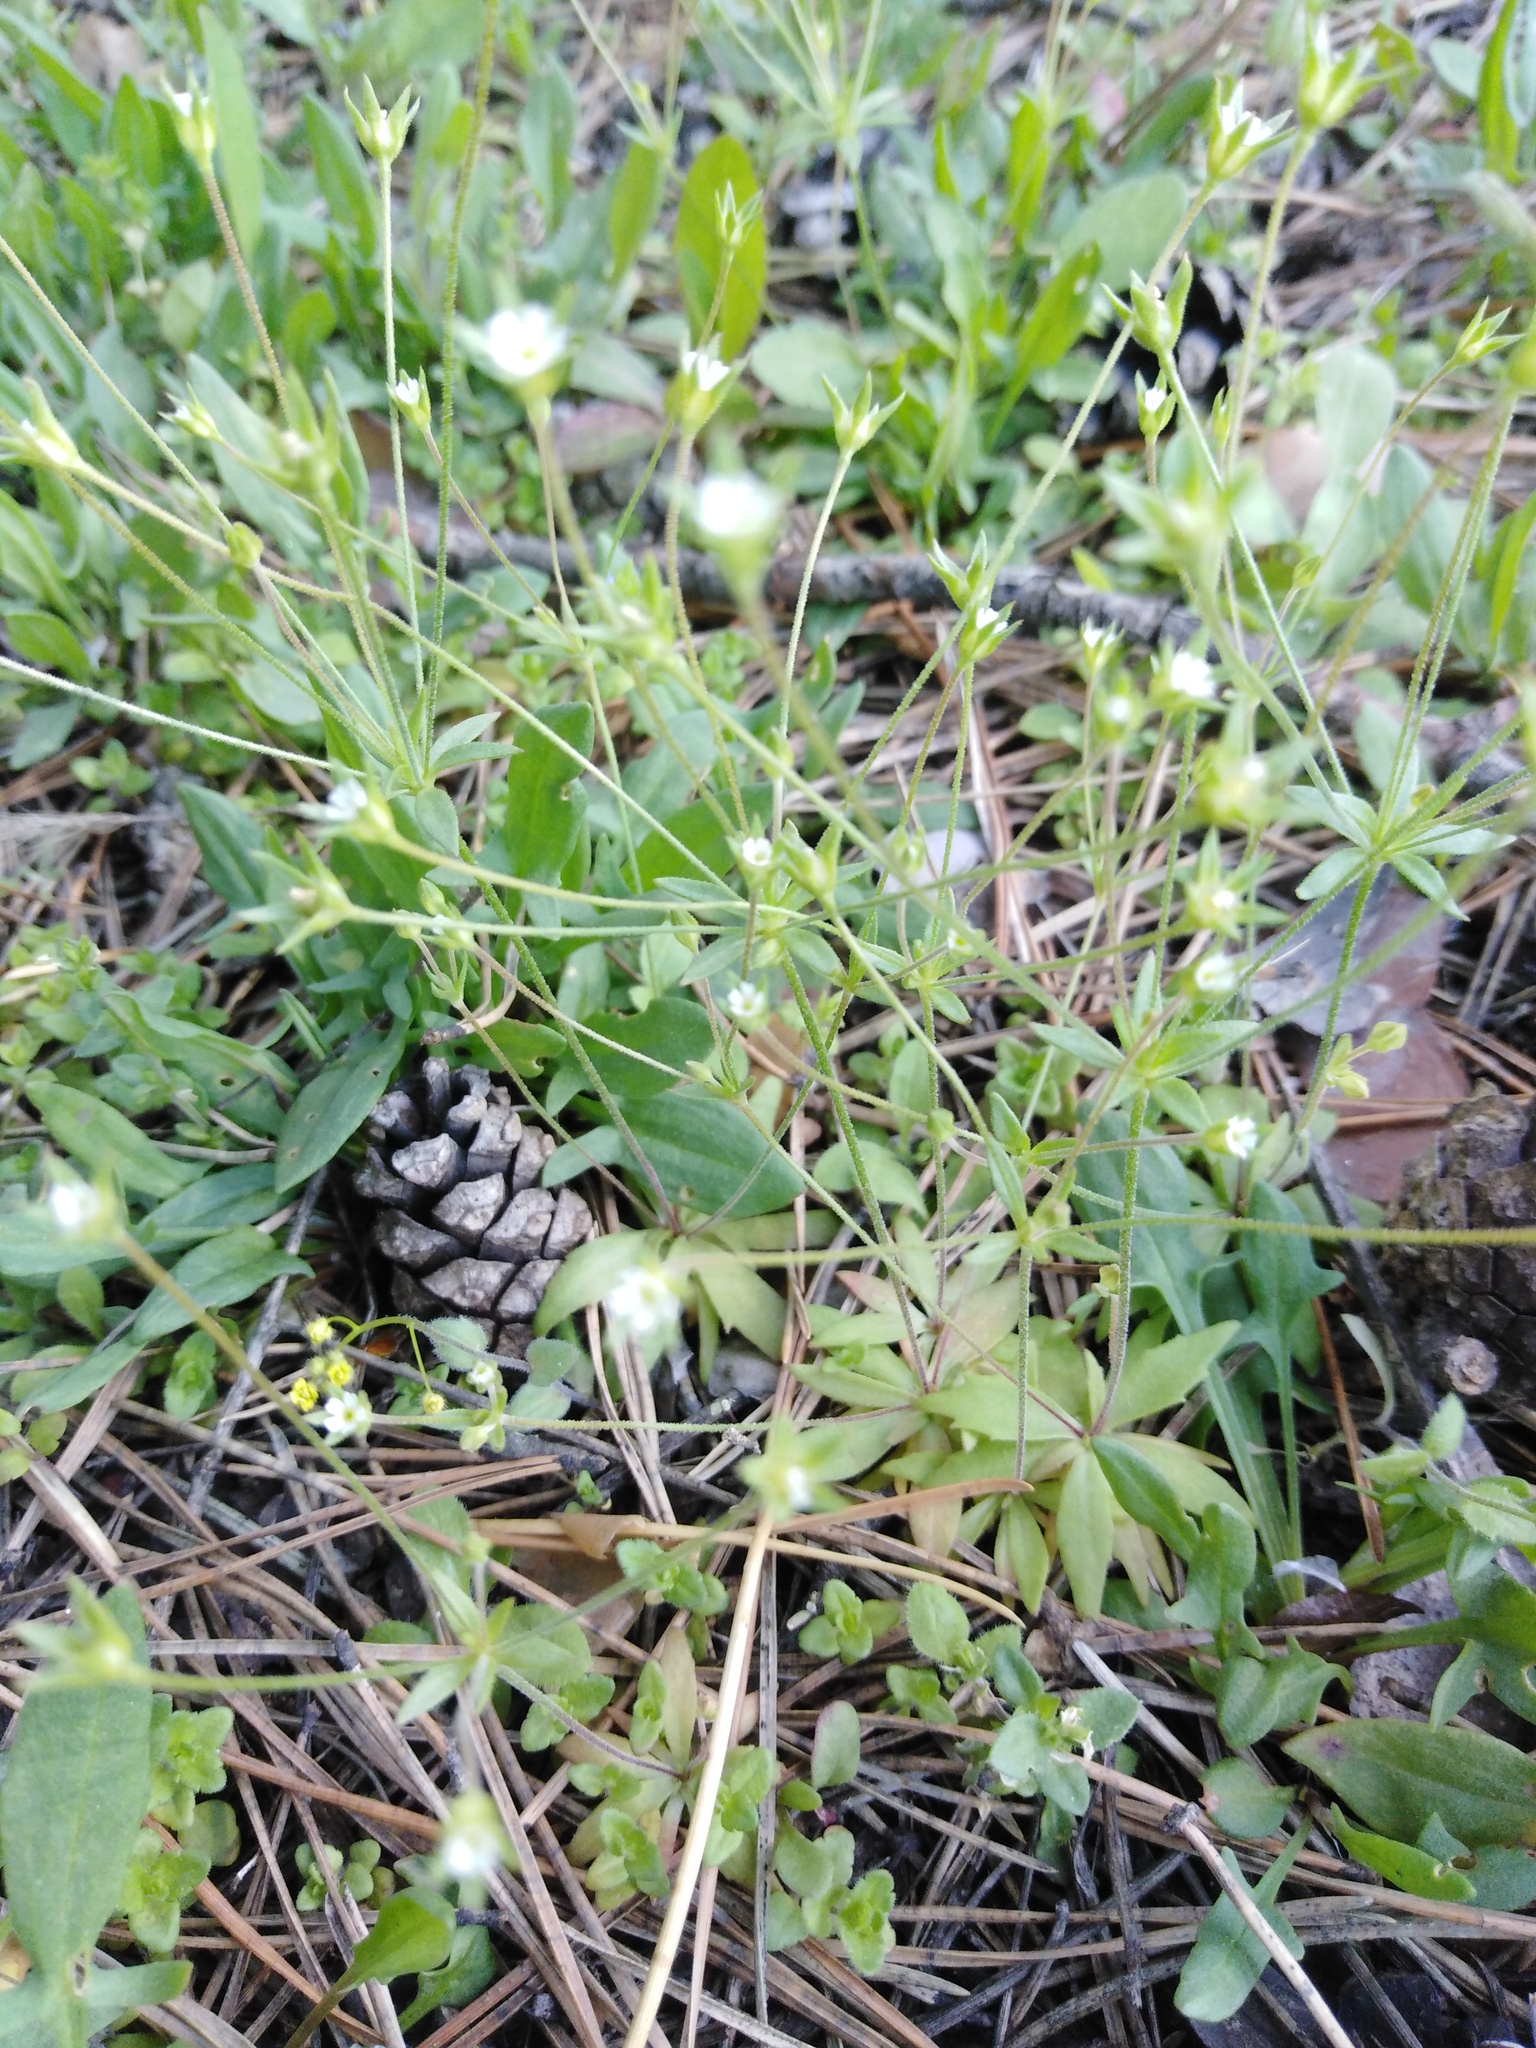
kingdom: Plantae
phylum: Tracheophyta
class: Magnoliopsida
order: Ericales
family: Primulaceae
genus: Androsace
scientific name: Androsace elongata
